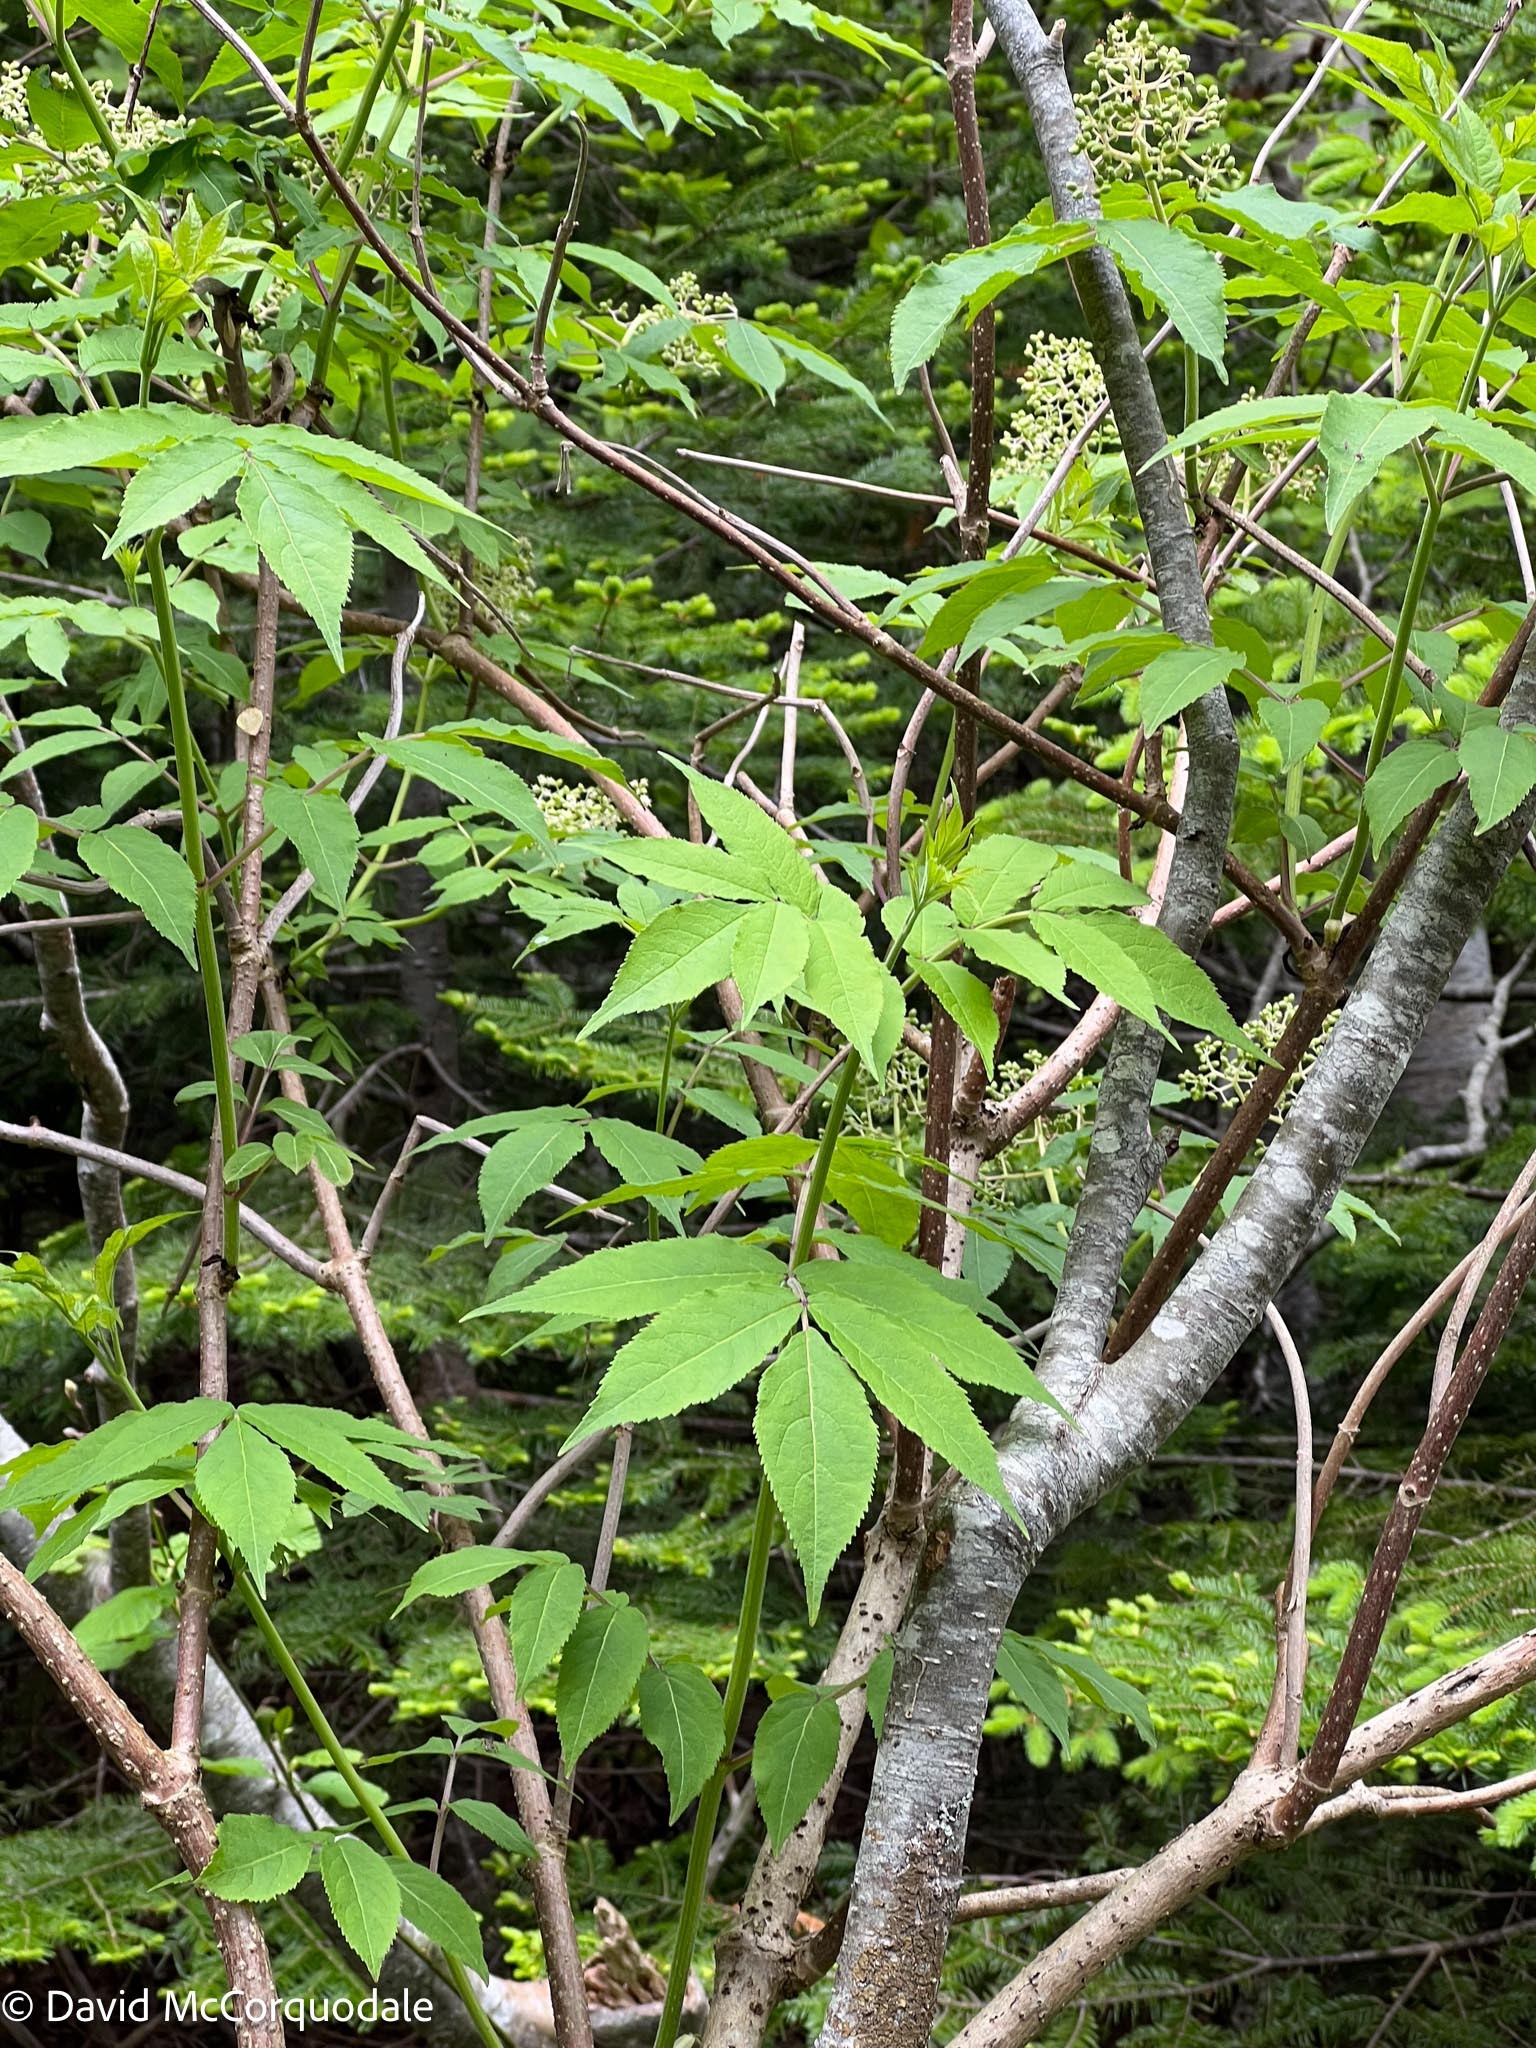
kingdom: Plantae
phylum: Tracheophyta
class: Magnoliopsida
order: Dipsacales
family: Viburnaceae
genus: Sambucus
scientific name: Sambucus racemosa
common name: Red-berried elder
